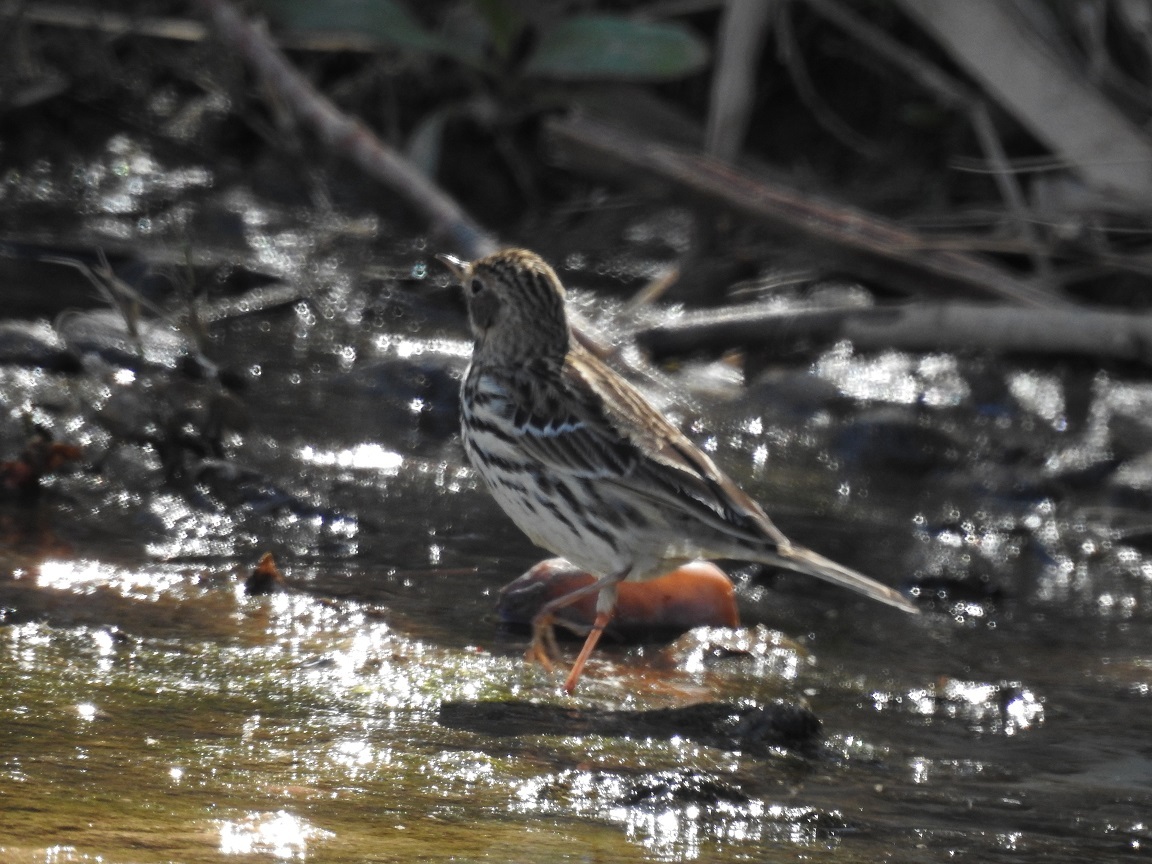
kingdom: Animalia
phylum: Chordata
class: Aves
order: Passeriformes
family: Motacillidae
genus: Anthus
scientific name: Anthus cervinus
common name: Red-throated pipit
